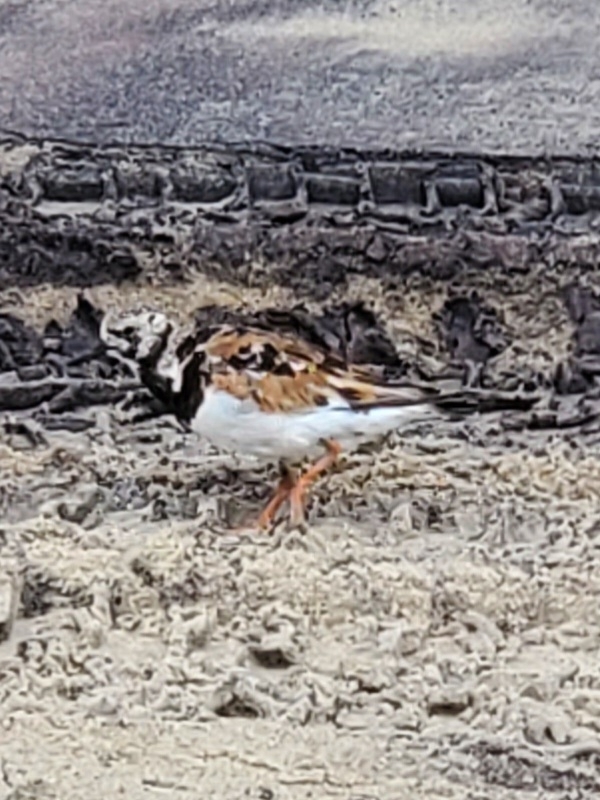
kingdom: Animalia
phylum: Chordata
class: Aves
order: Charadriiformes
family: Scolopacidae
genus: Arenaria
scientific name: Arenaria interpres
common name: Ruddy turnstone
